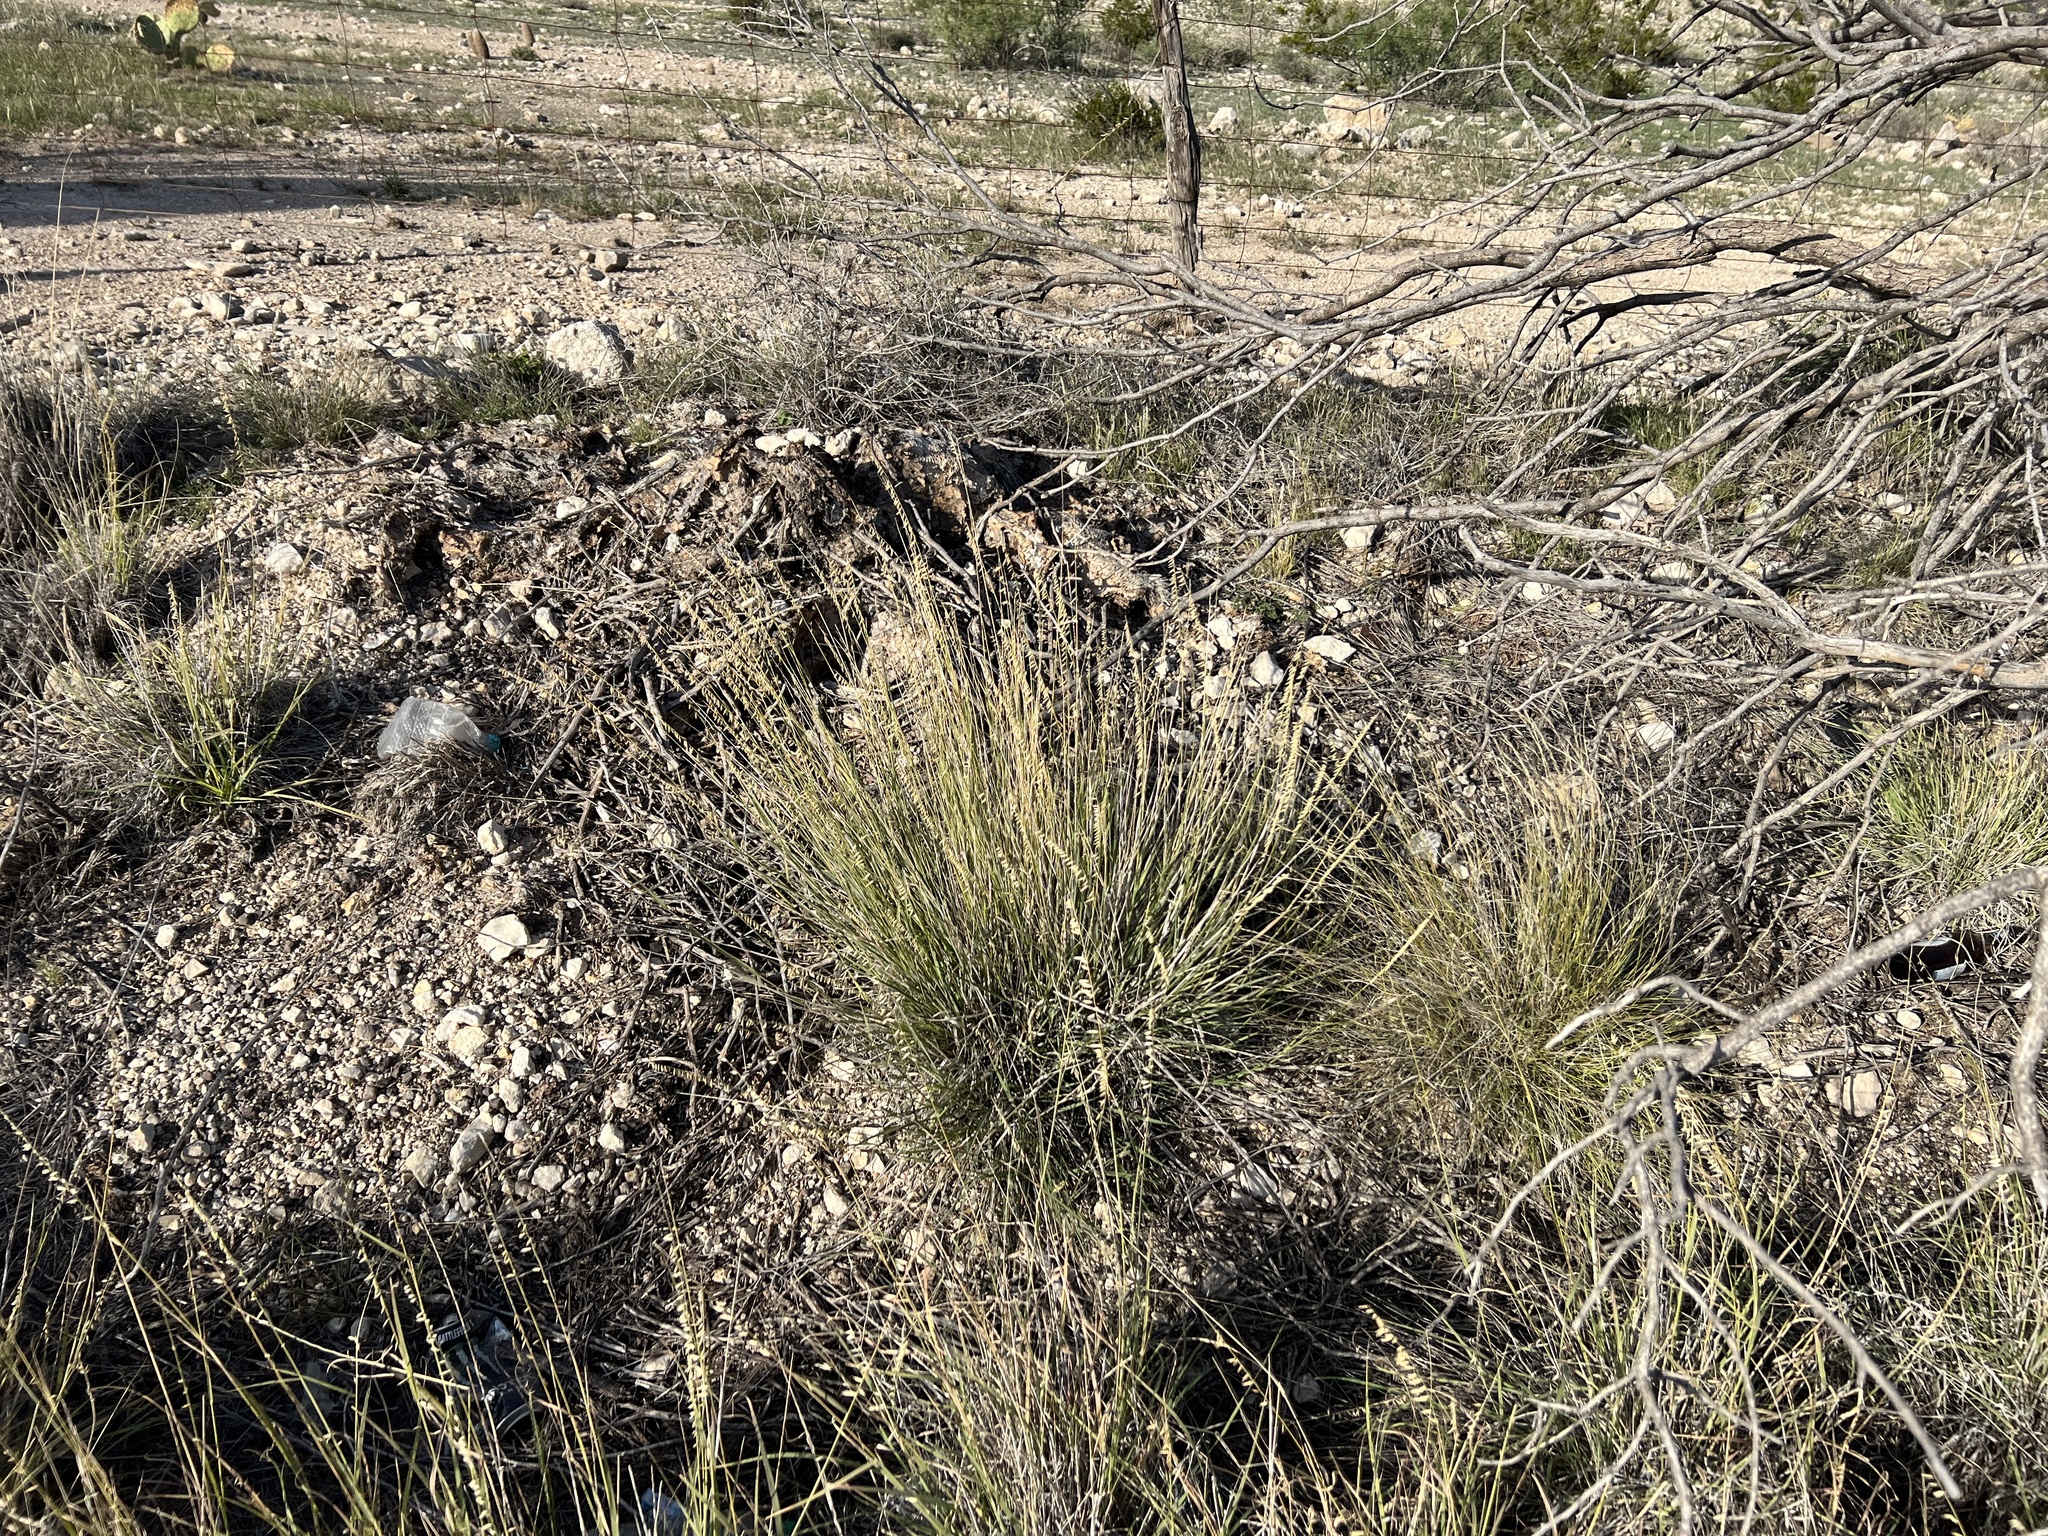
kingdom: Plantae
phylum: Tracheophyta
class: Liliopsida
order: Poales
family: Poaceae
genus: Bouteloua
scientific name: Bouteloua curtipendula
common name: Side-oats grama
